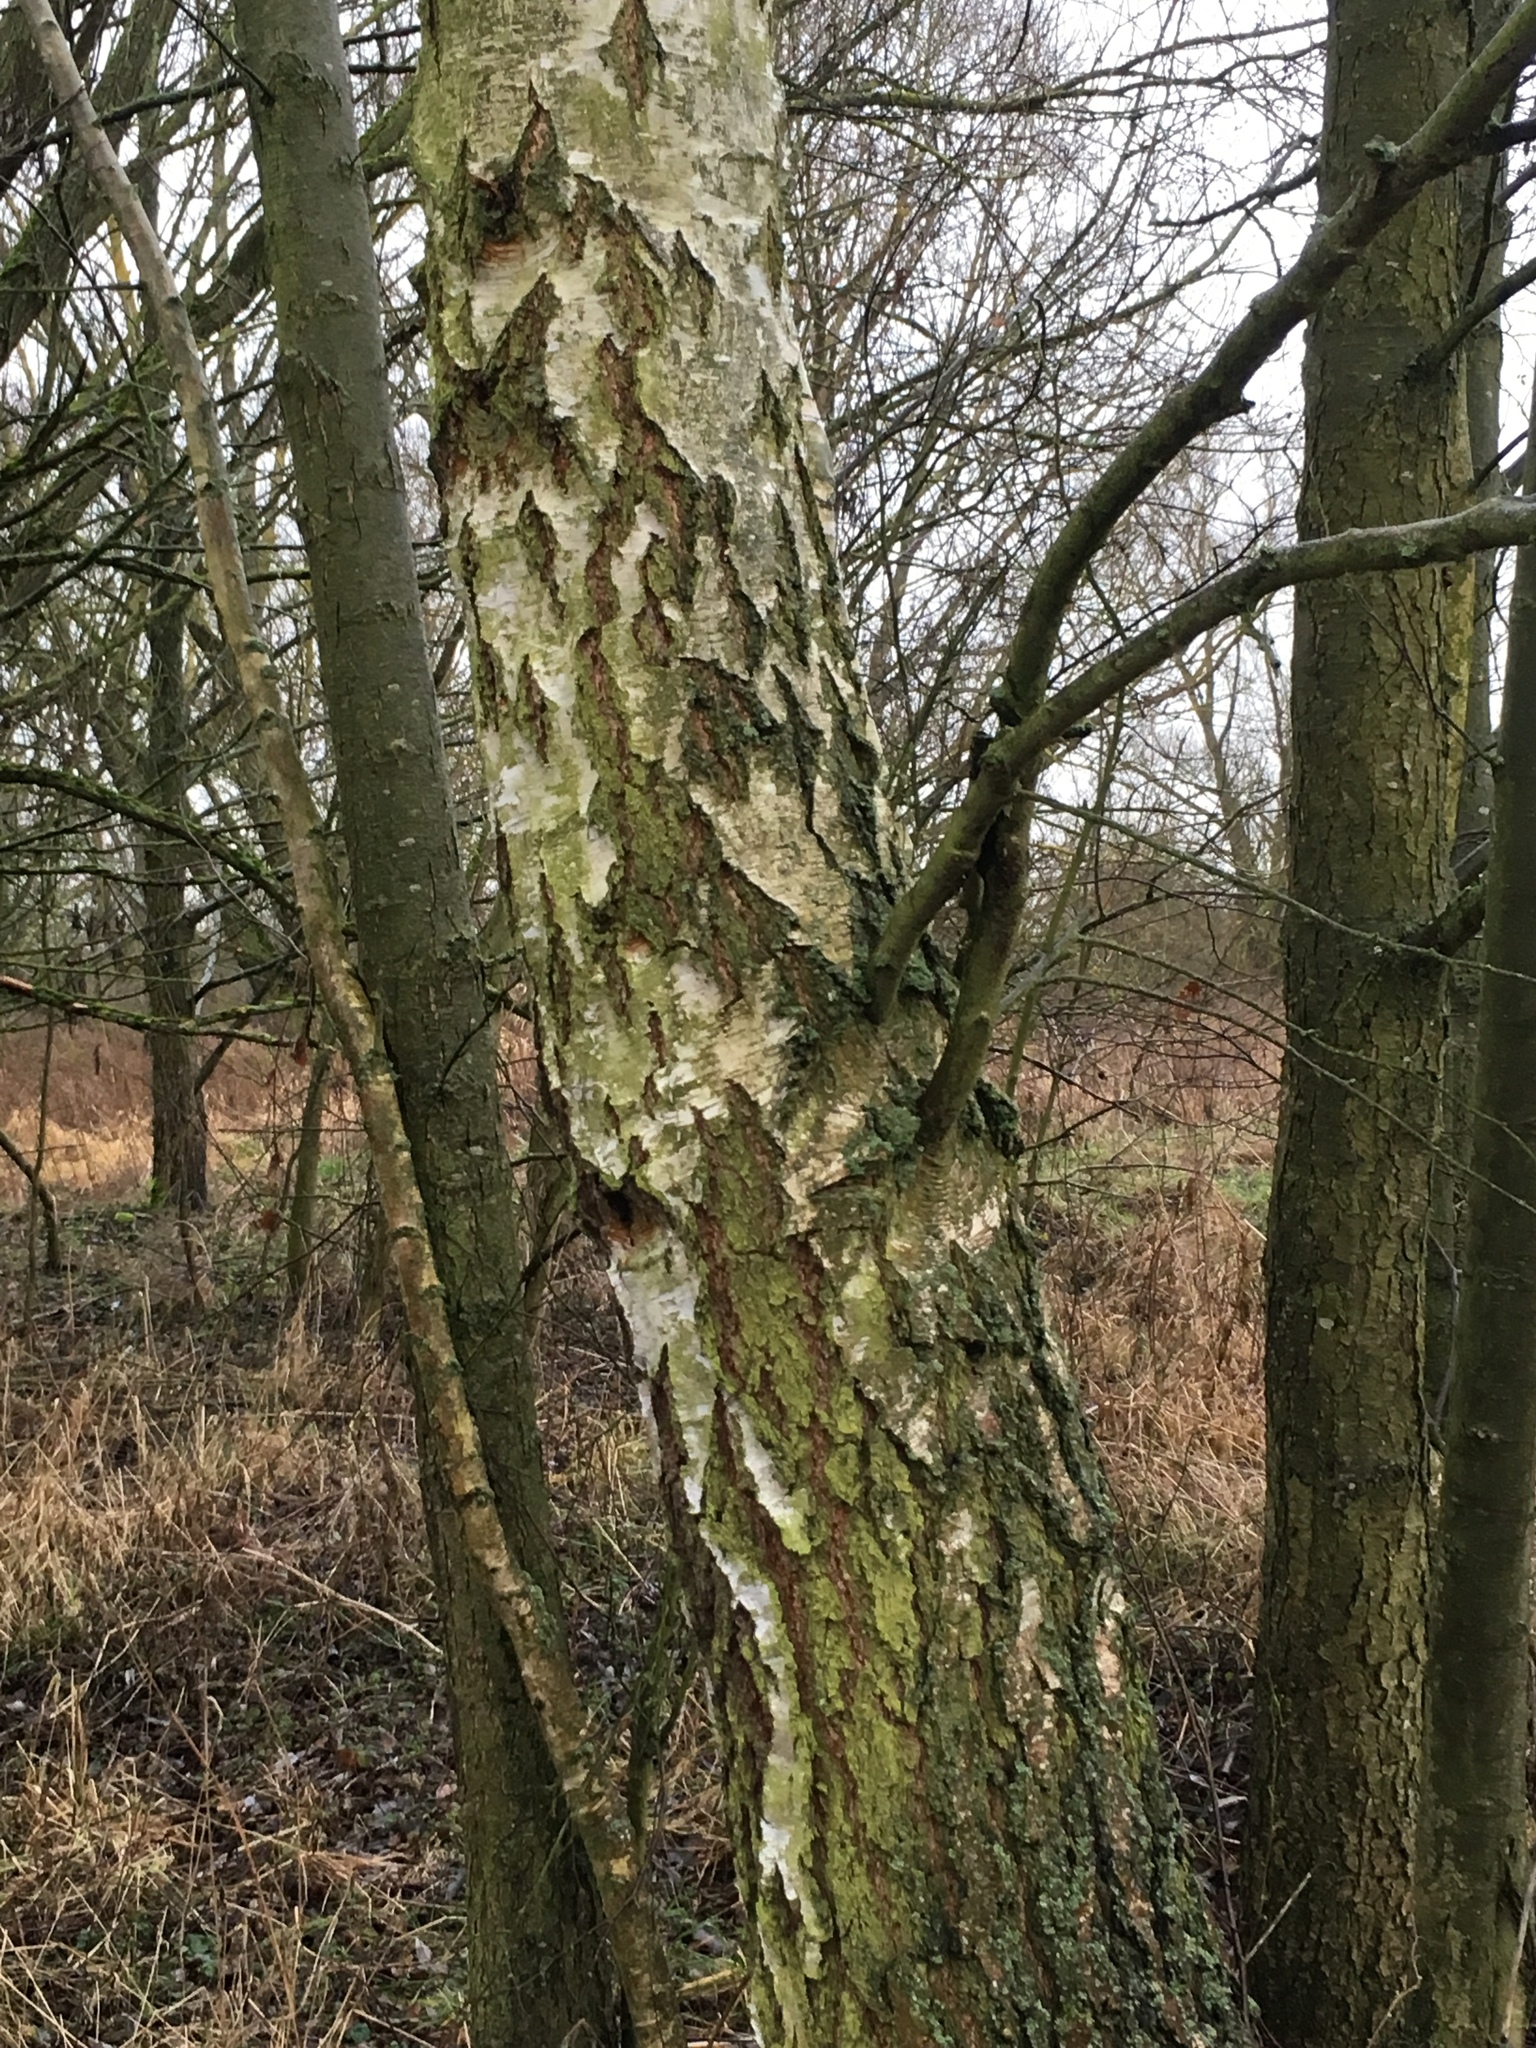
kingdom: Plantae
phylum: Tracheophyta
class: Magnoliopsida
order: Fagales
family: Betulaceae
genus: Betula
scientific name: Betula pendula
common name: Silver birch
